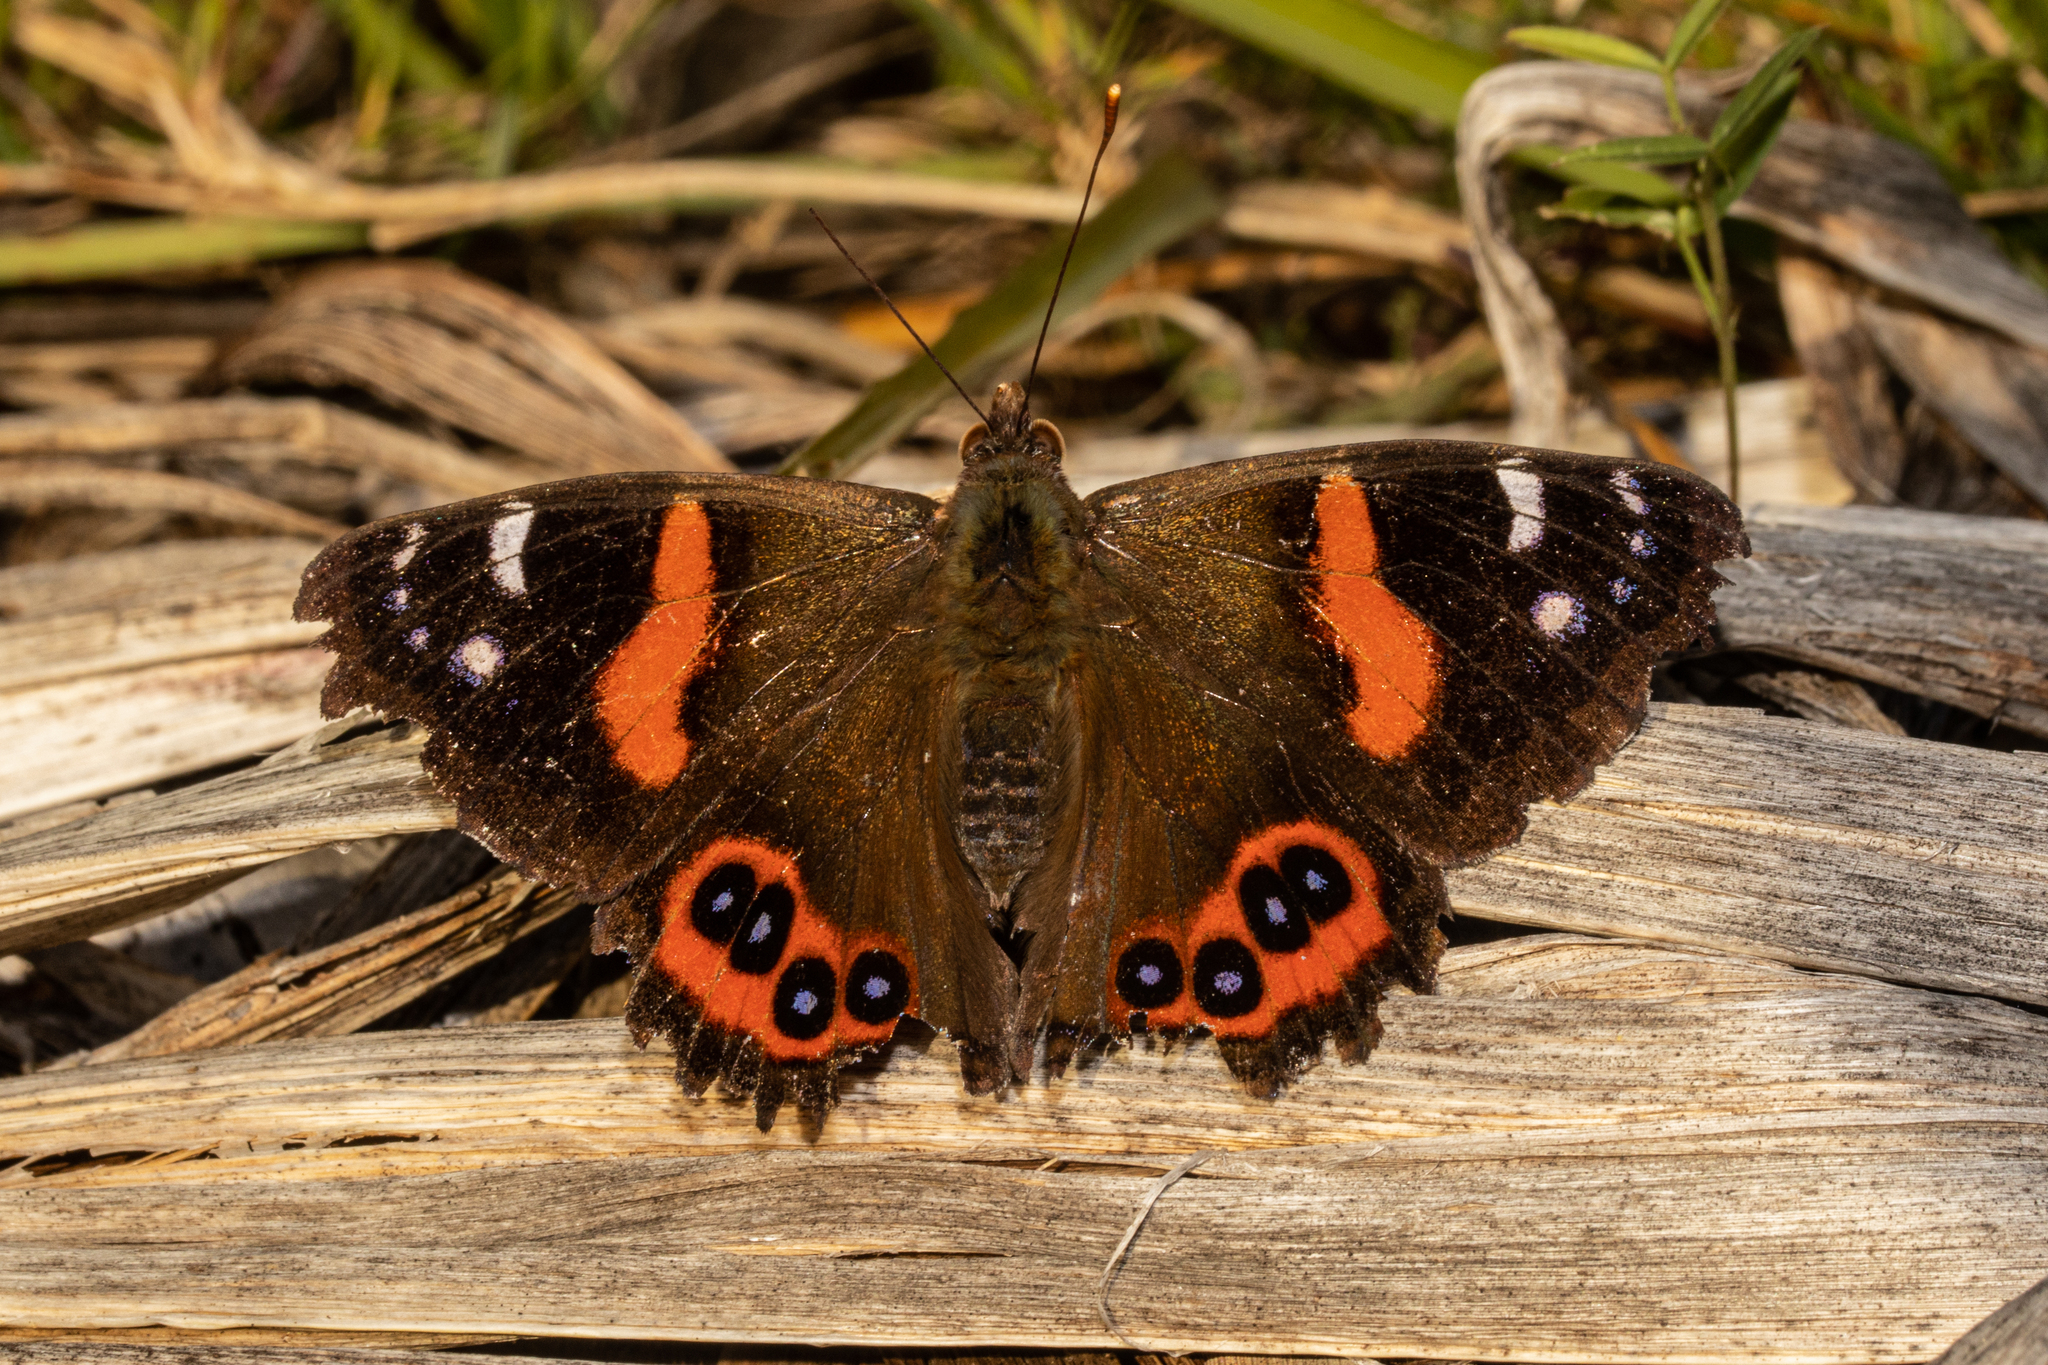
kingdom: Animalia
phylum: Arthropoda
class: Insecta
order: Lepidoptera
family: Nymphalidae
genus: Vanessa
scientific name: Vanessa gonerilla
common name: New zealand red admiral
